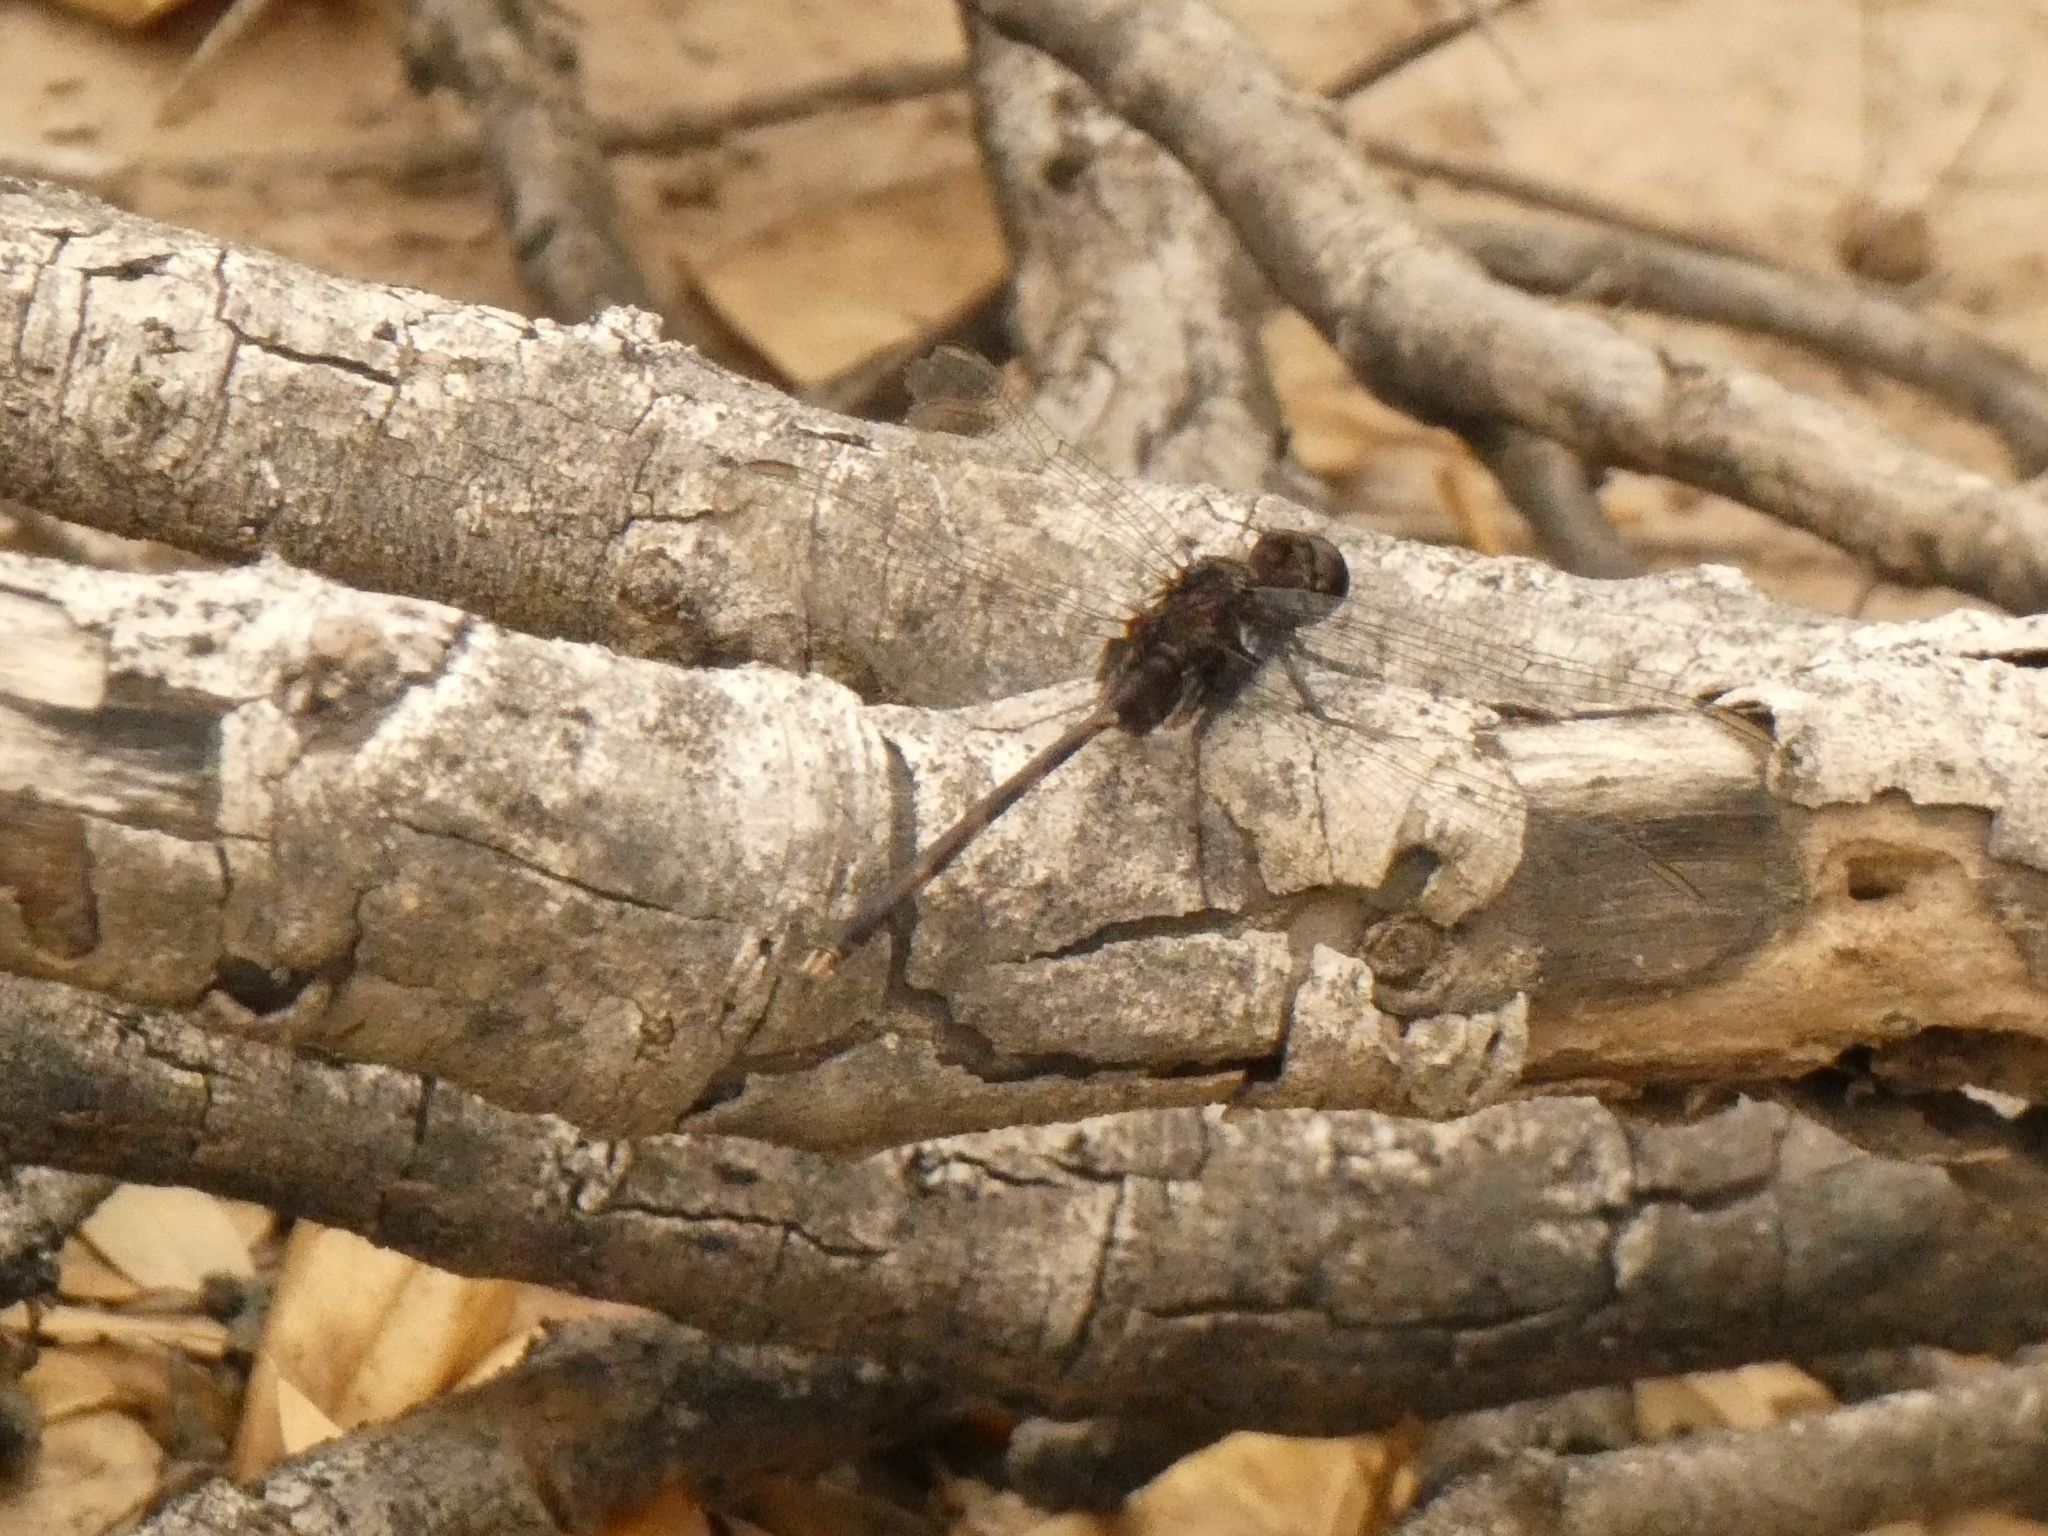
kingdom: Animalia
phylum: Arthropoda
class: Insecta
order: Odonata
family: Libellulidae
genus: Erythemis
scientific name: Erythemis plebeja
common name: Pin-tailed pondhawk
